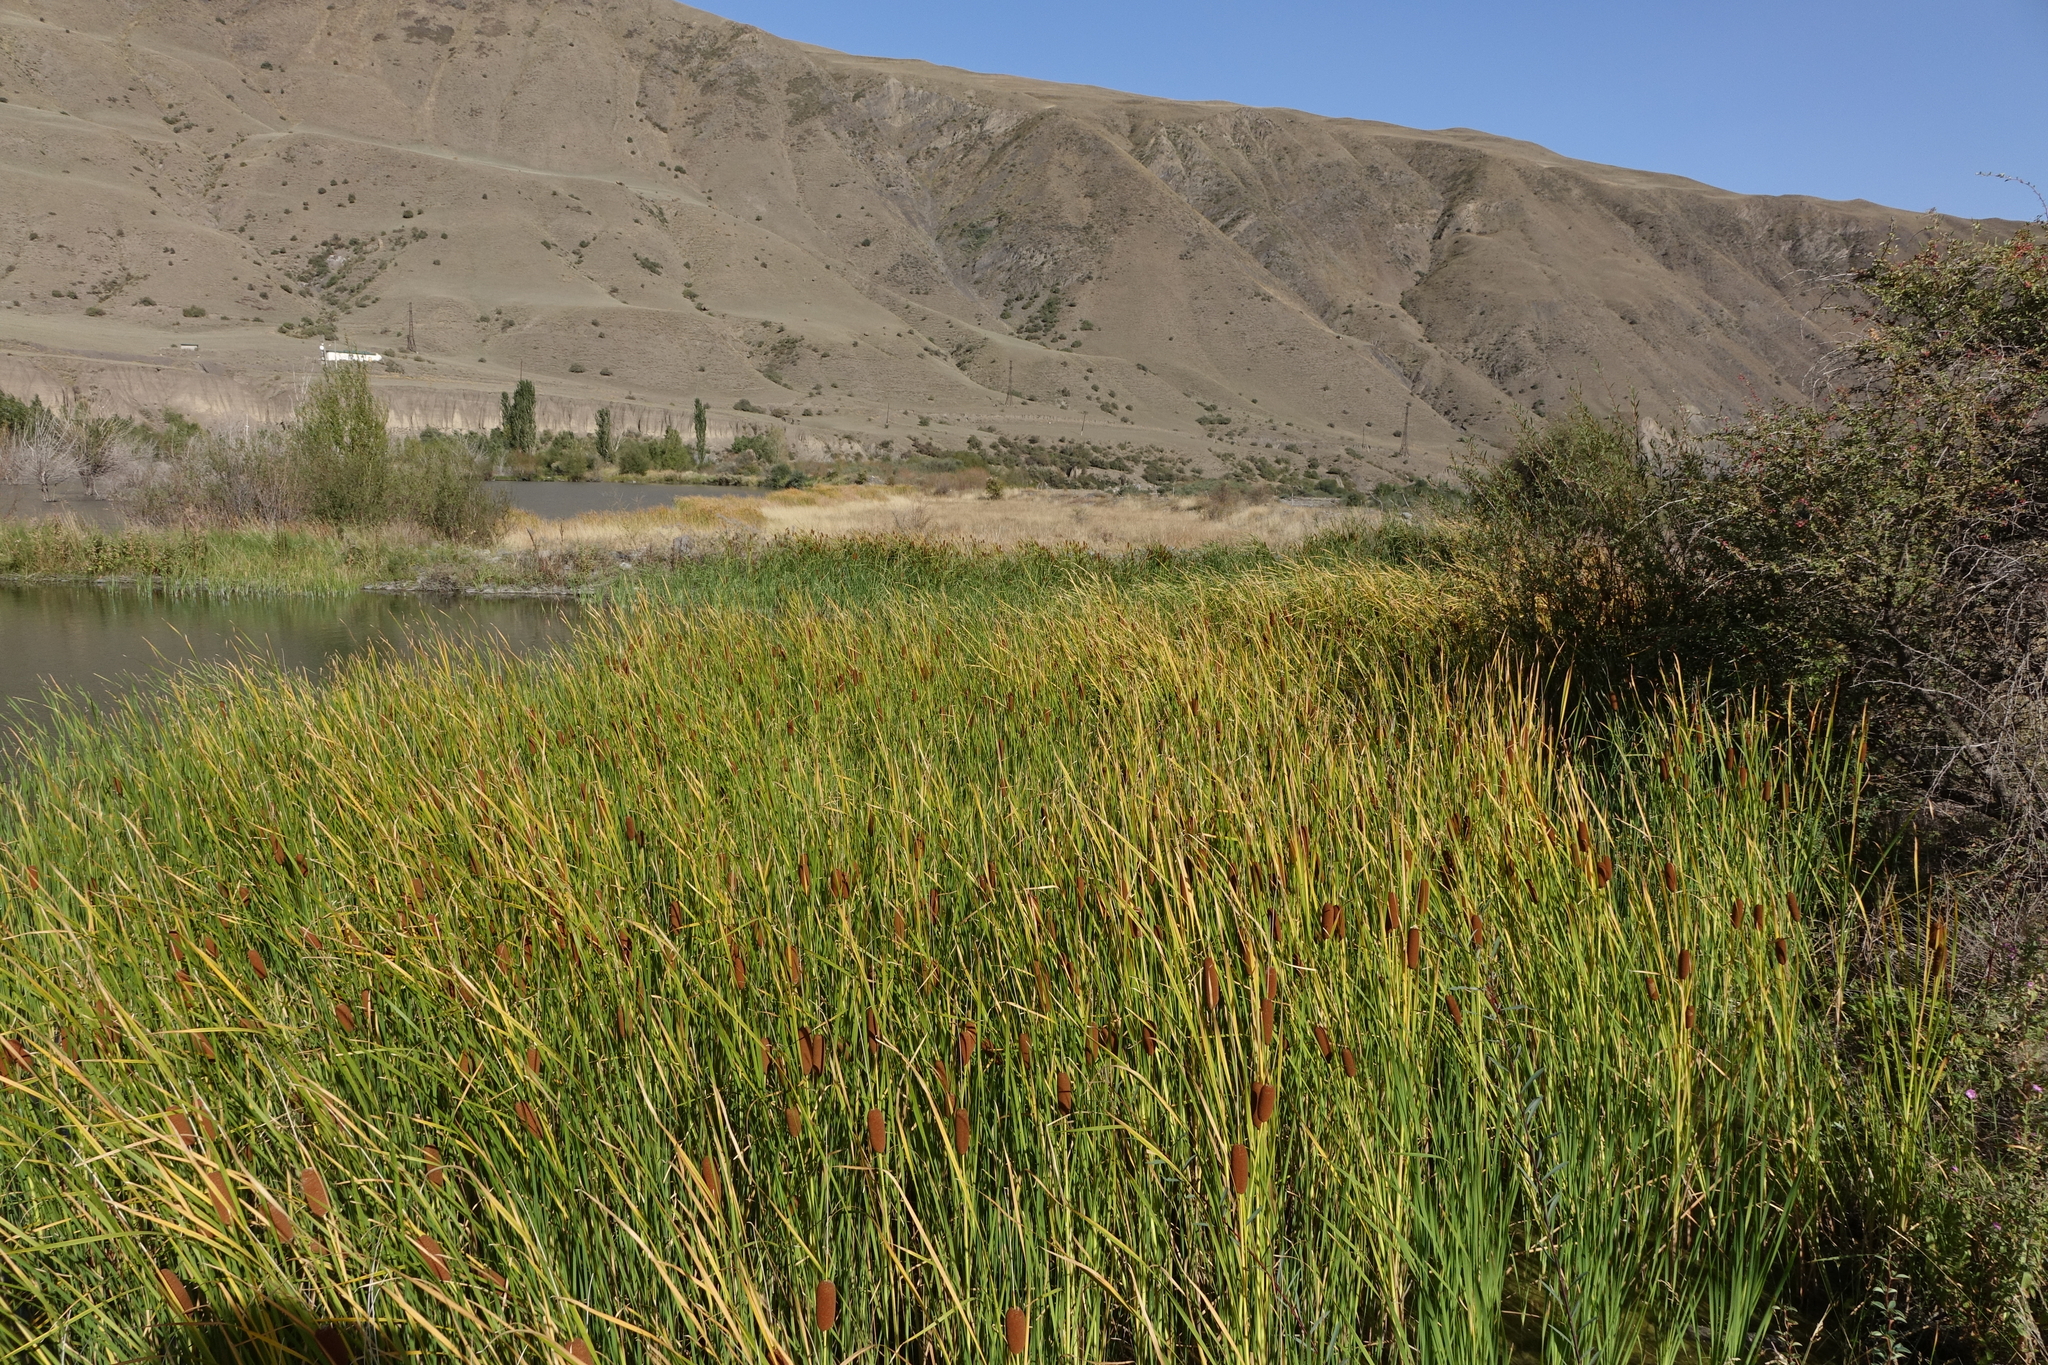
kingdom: Plantae
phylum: Tracheophyta
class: Liliopsida
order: Poales
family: Typhaceae
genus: Typha
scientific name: Typha laxmannii
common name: Laxman’s bulrush
